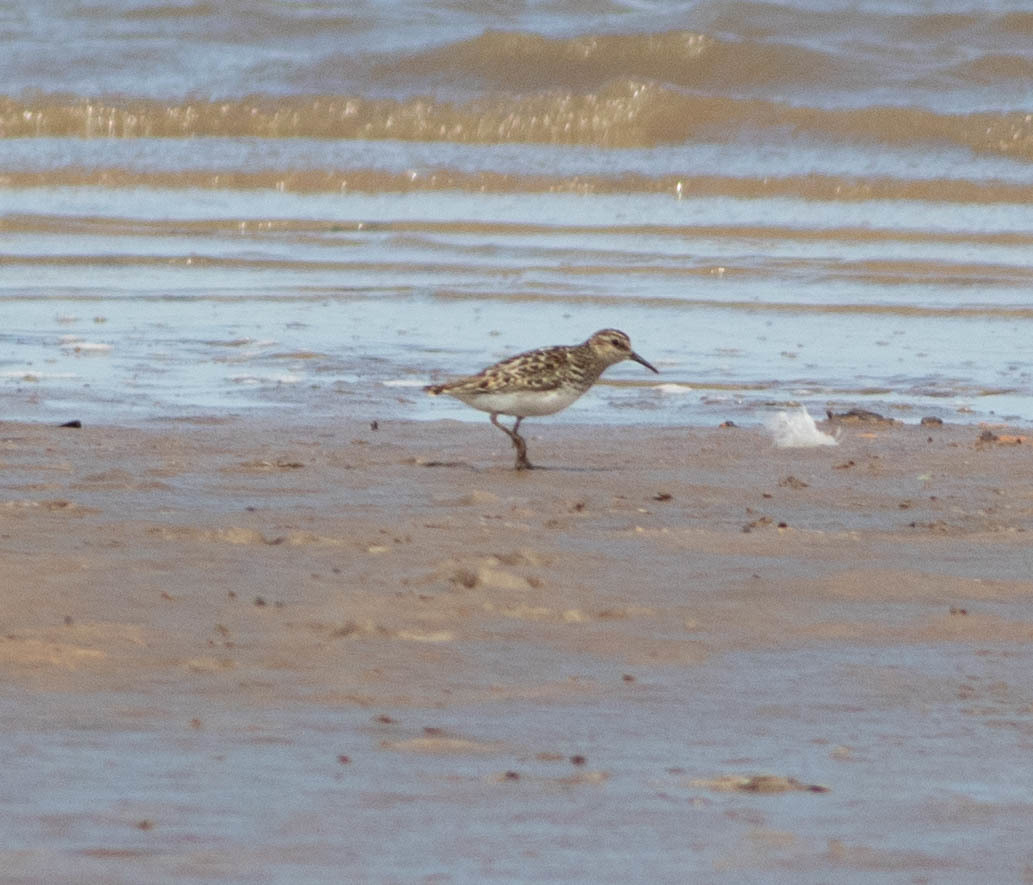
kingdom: Animalia
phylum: Chordata
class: Aves
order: Charadriiformes
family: Scolopacidae
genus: Calidris
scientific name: Calidris minutilla
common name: Least sandpiper
